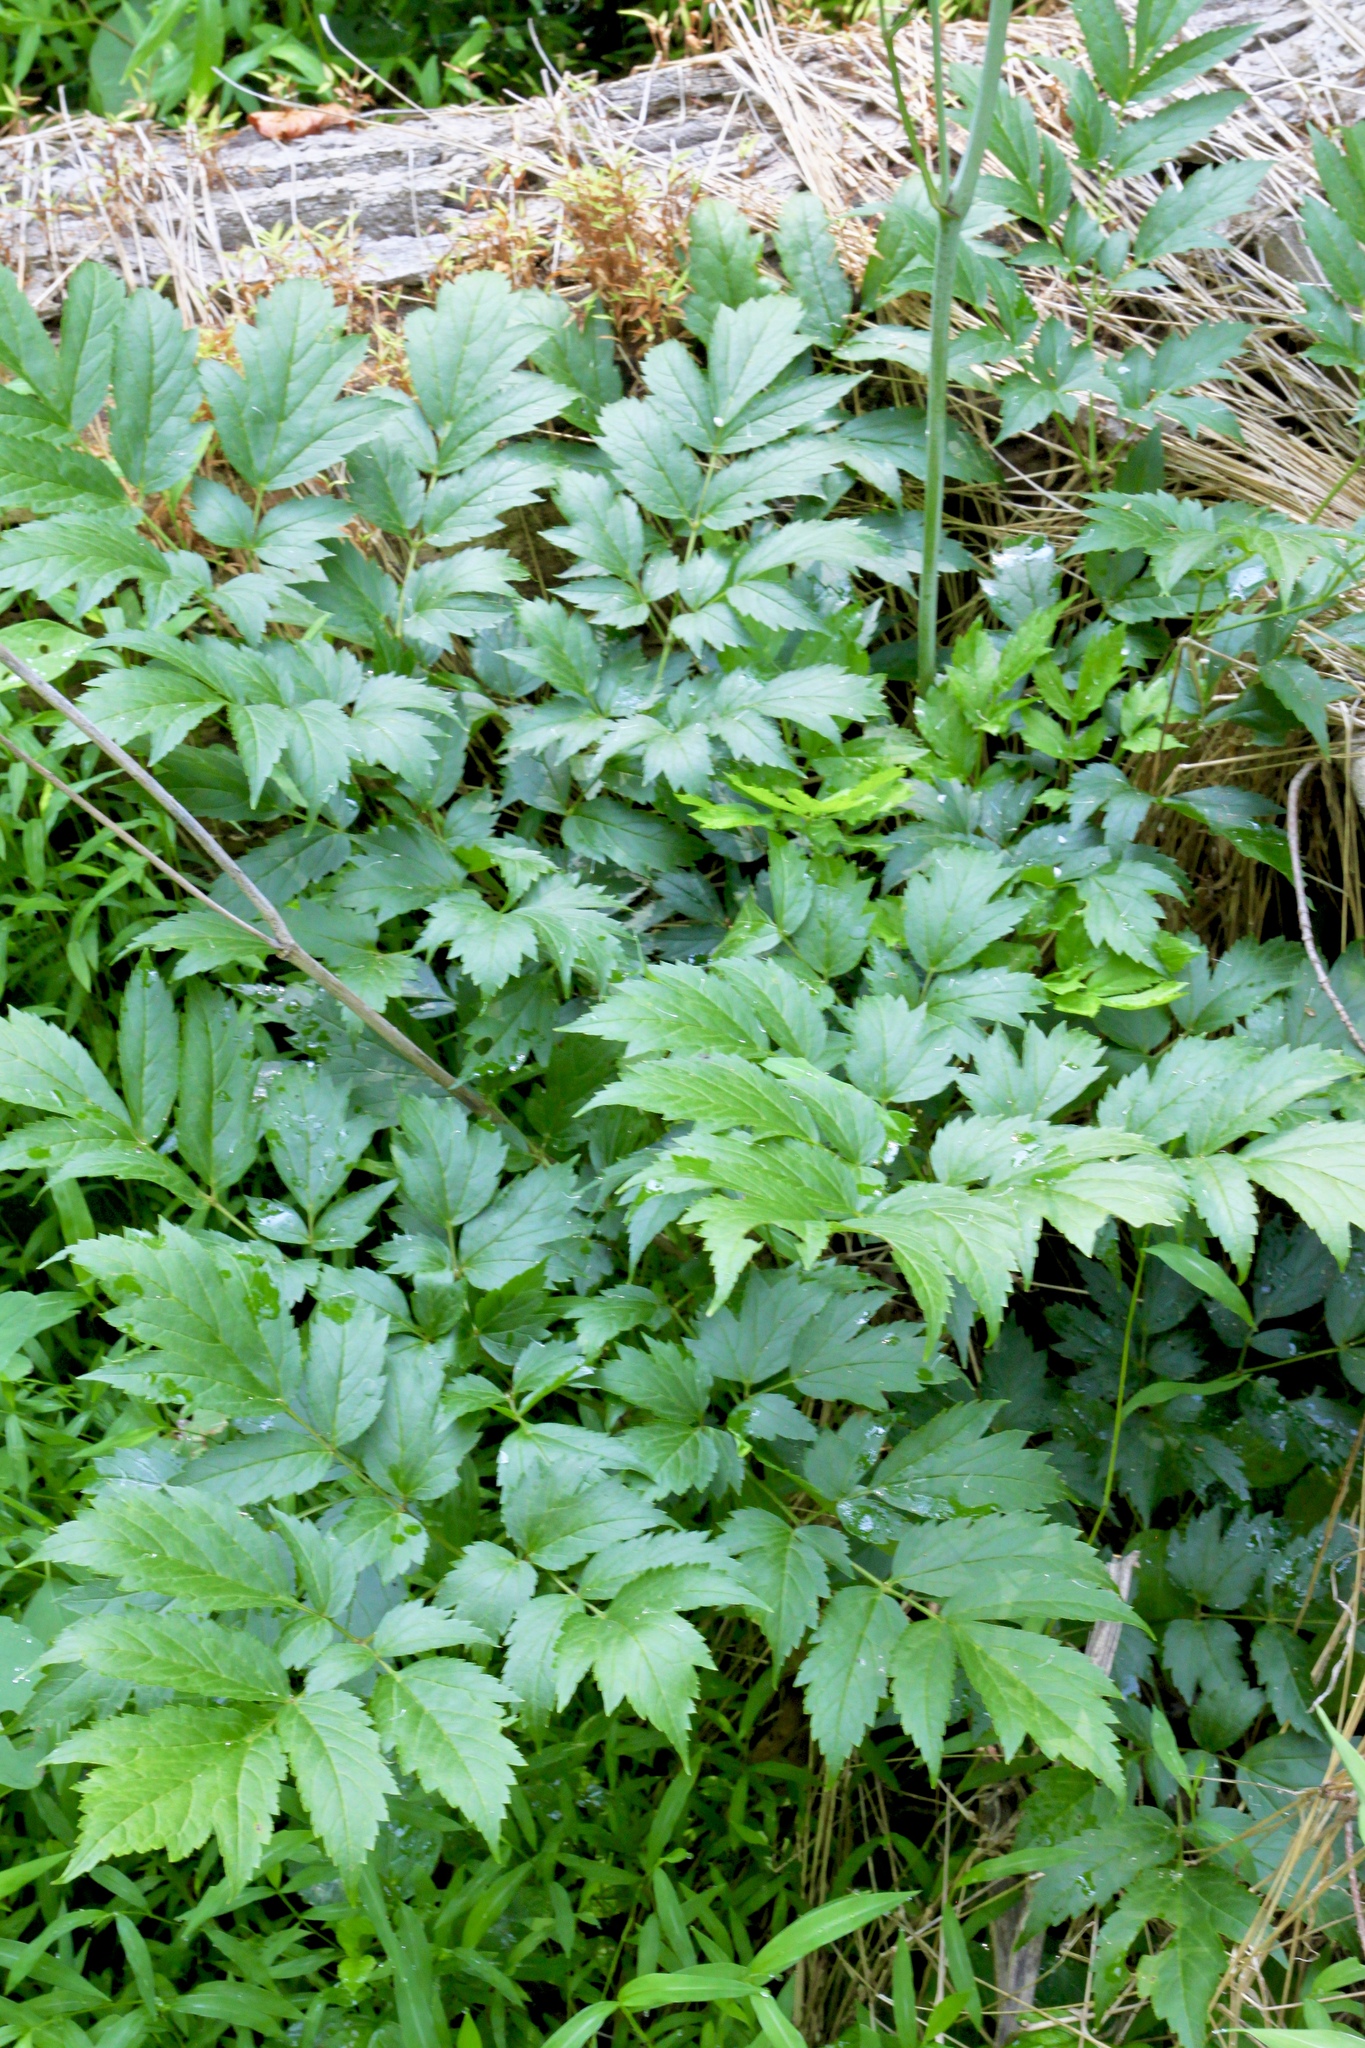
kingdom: Plantae
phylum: Tracheophyta
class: Magnoliopsida
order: Ranunculales
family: Ranunculaceae
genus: Actaea
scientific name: Actaea racemosa
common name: Black cohosh
